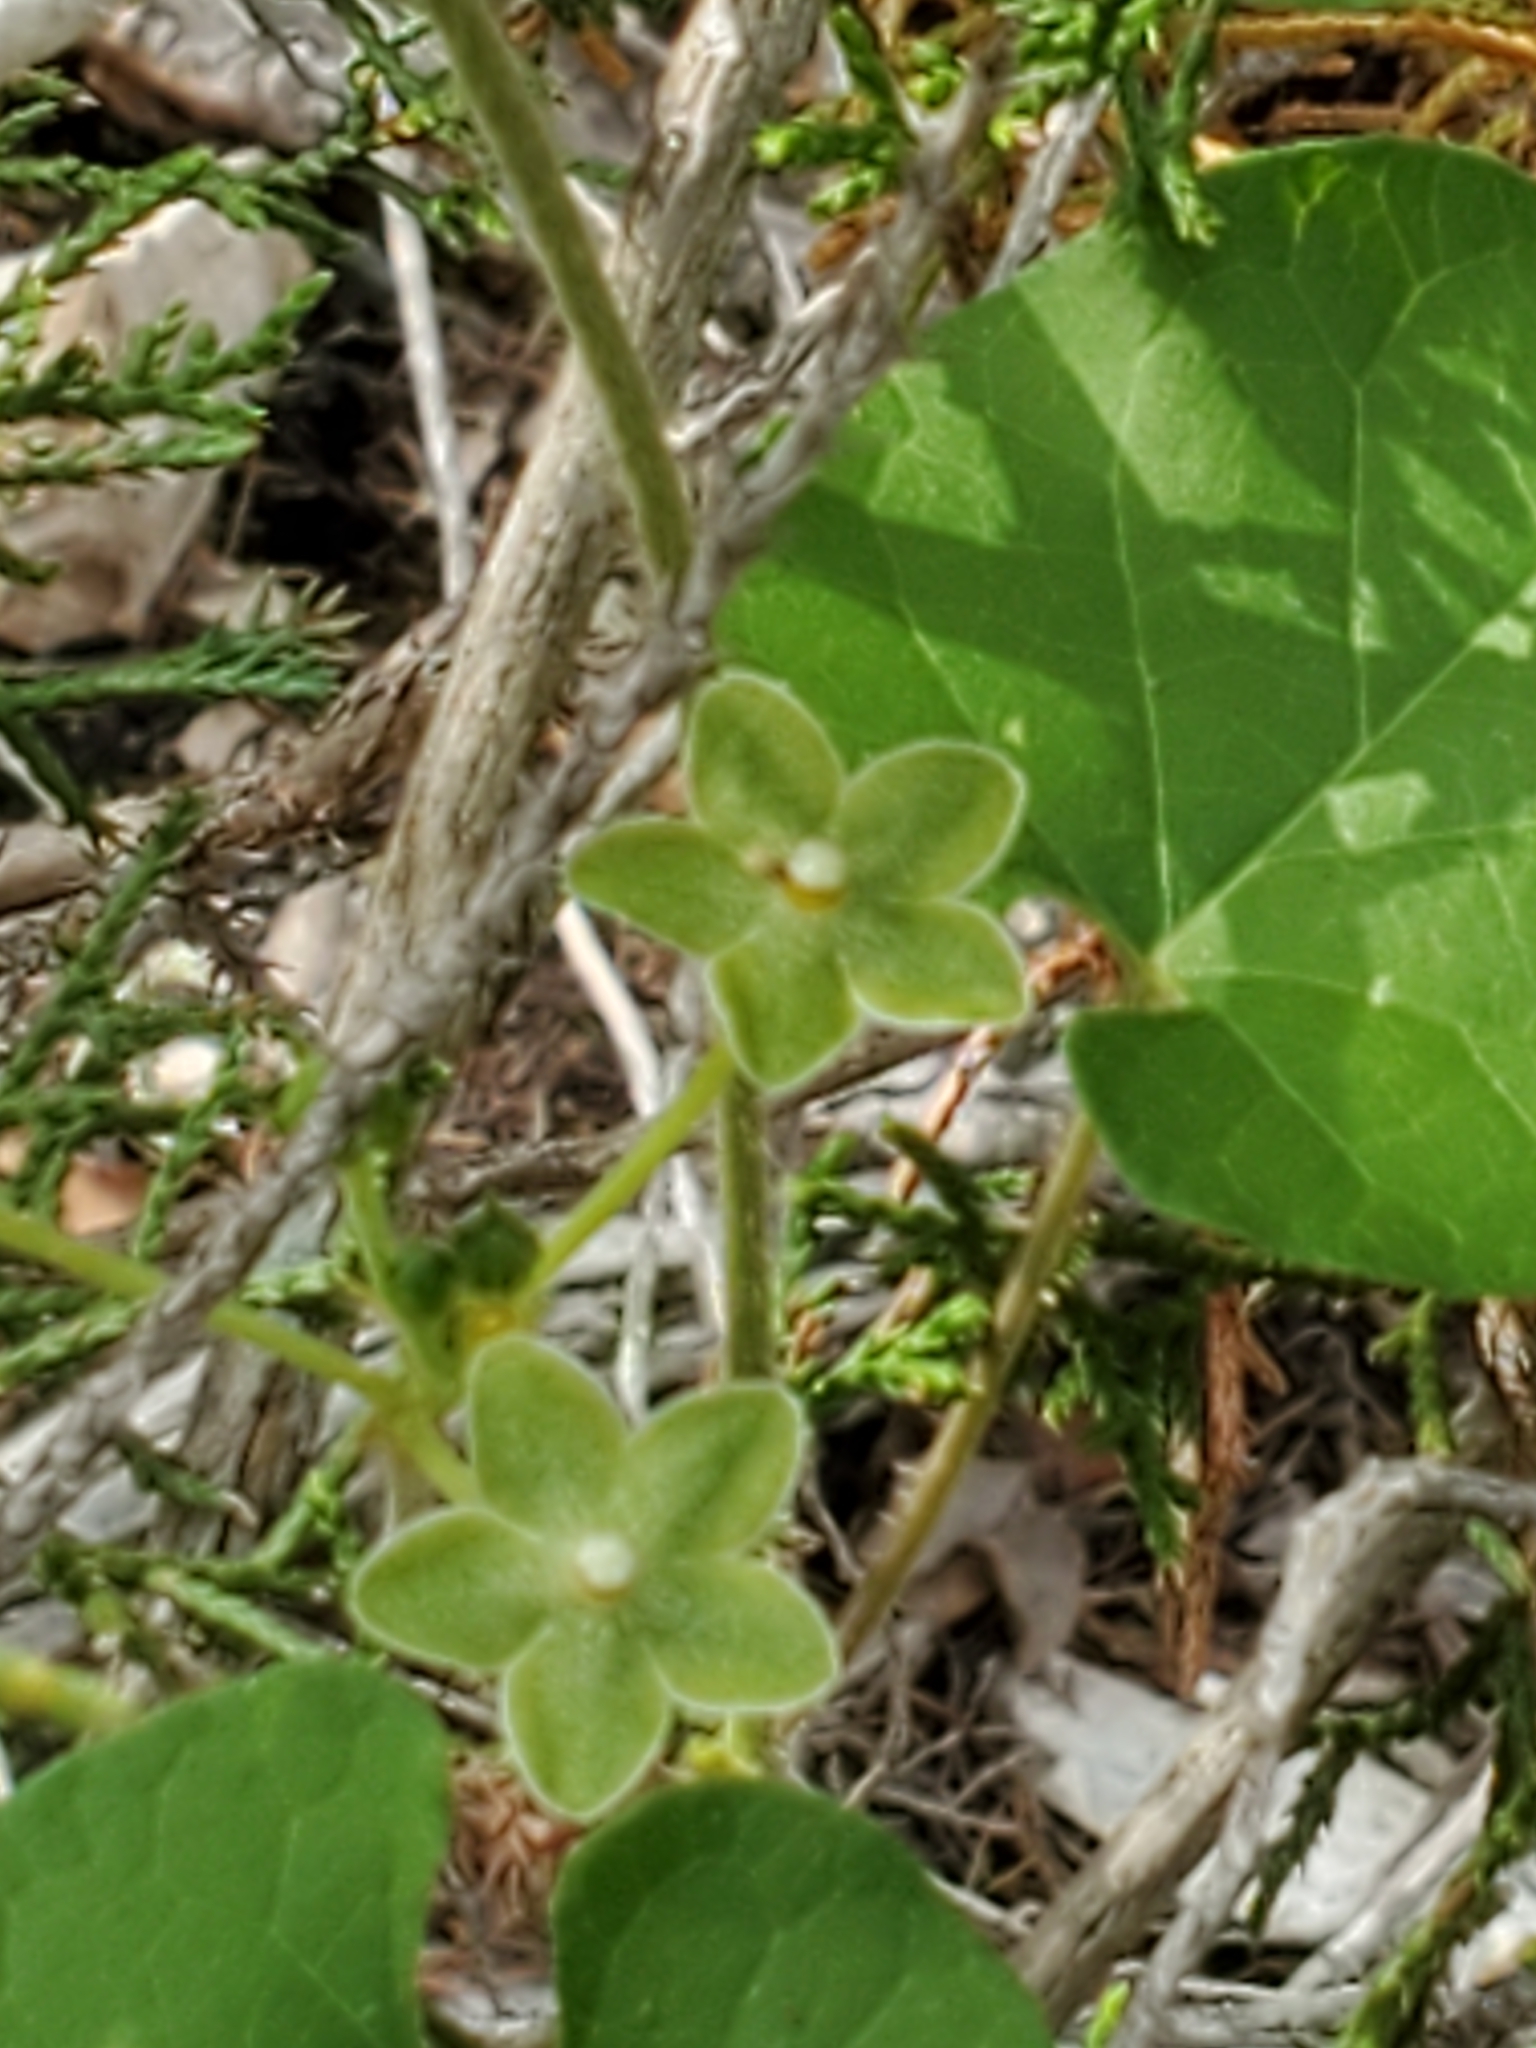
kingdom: Plantae
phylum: Tracheophyta
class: Magnoliopsida
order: Gentianales
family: Apocynaceae
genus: Dictyanthus
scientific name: Dictyanthus reticulatus
